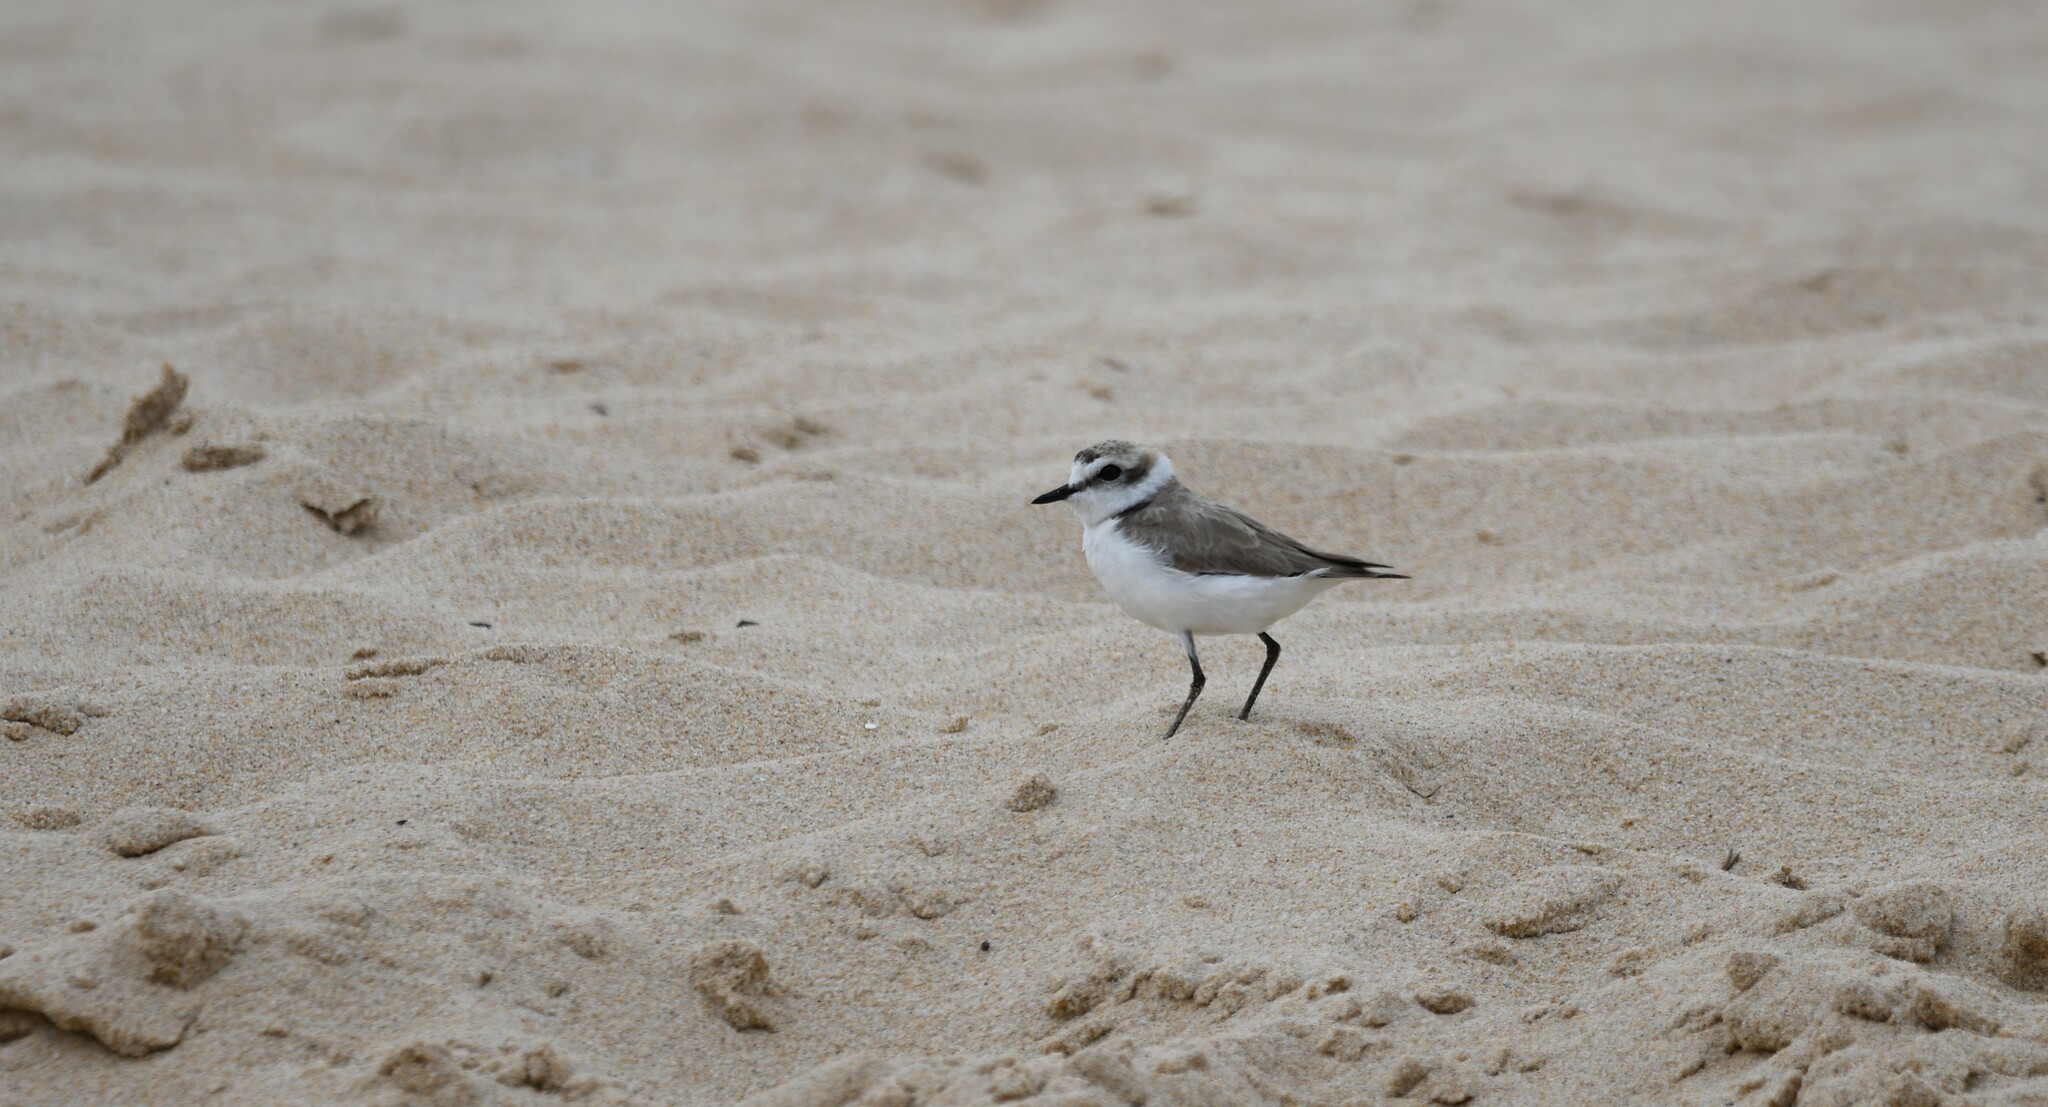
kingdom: Animalia
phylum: Chordata
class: Aves
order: Charadriiformes
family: Charadriidae
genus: Charadrius
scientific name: Charadrius alexandrinus
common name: Kentish plover
